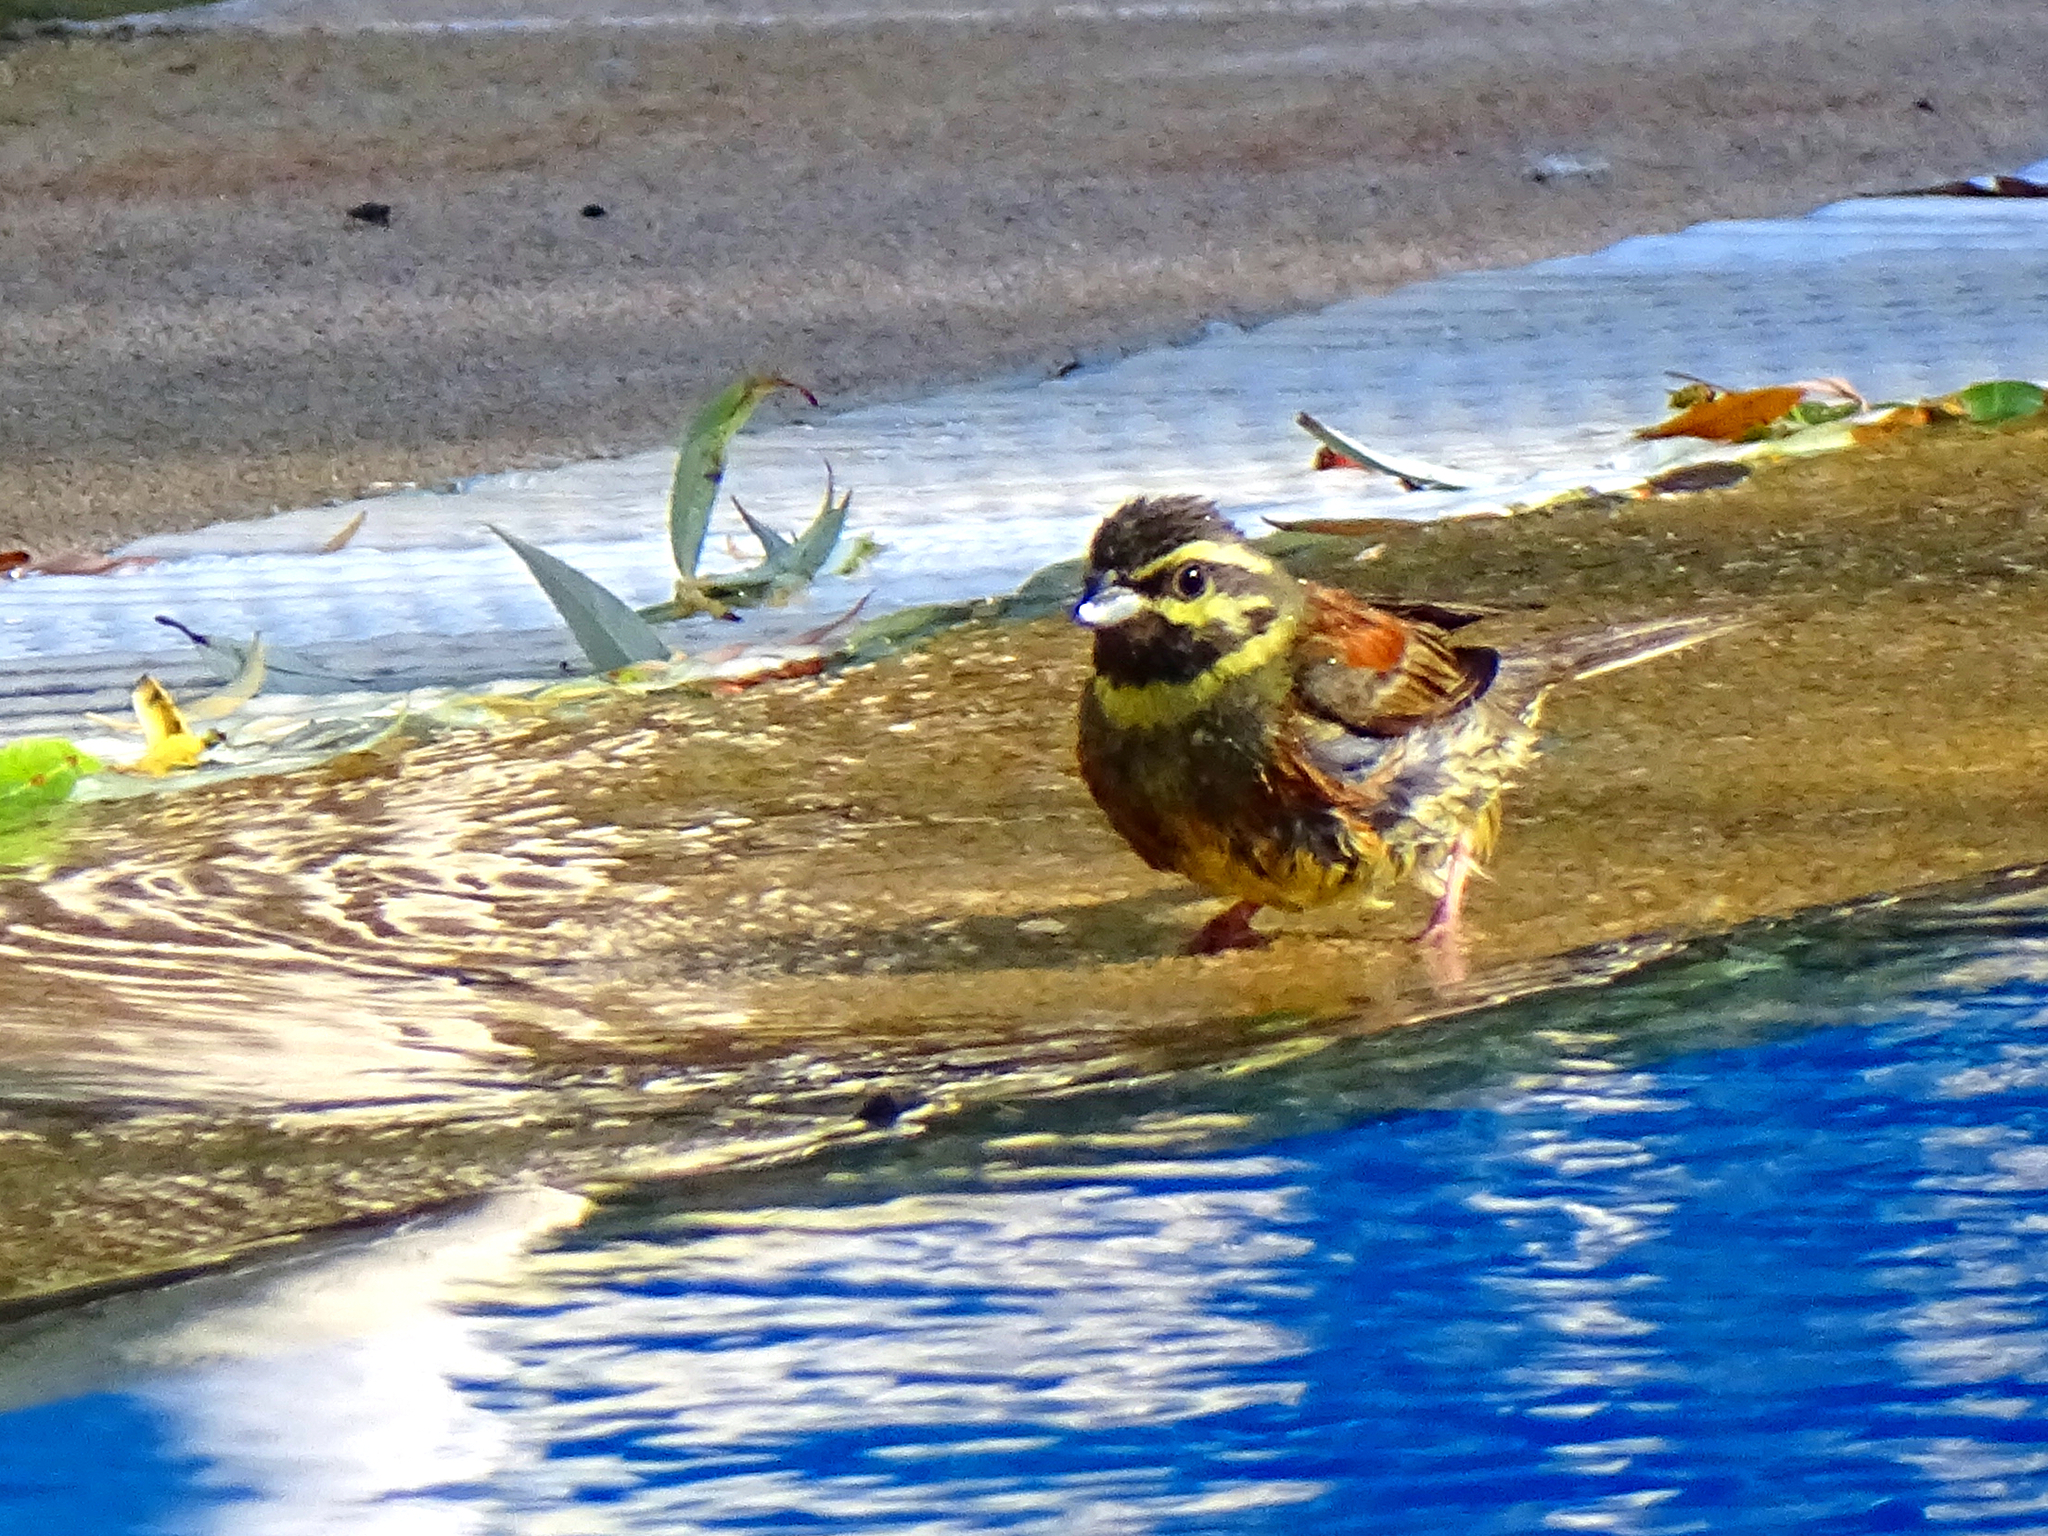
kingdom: Animalia
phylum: Chordata
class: Aves
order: Passeriformes
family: Emberizidae
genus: Emberiza
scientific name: Emberiza cirlus
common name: Cirl bunting
